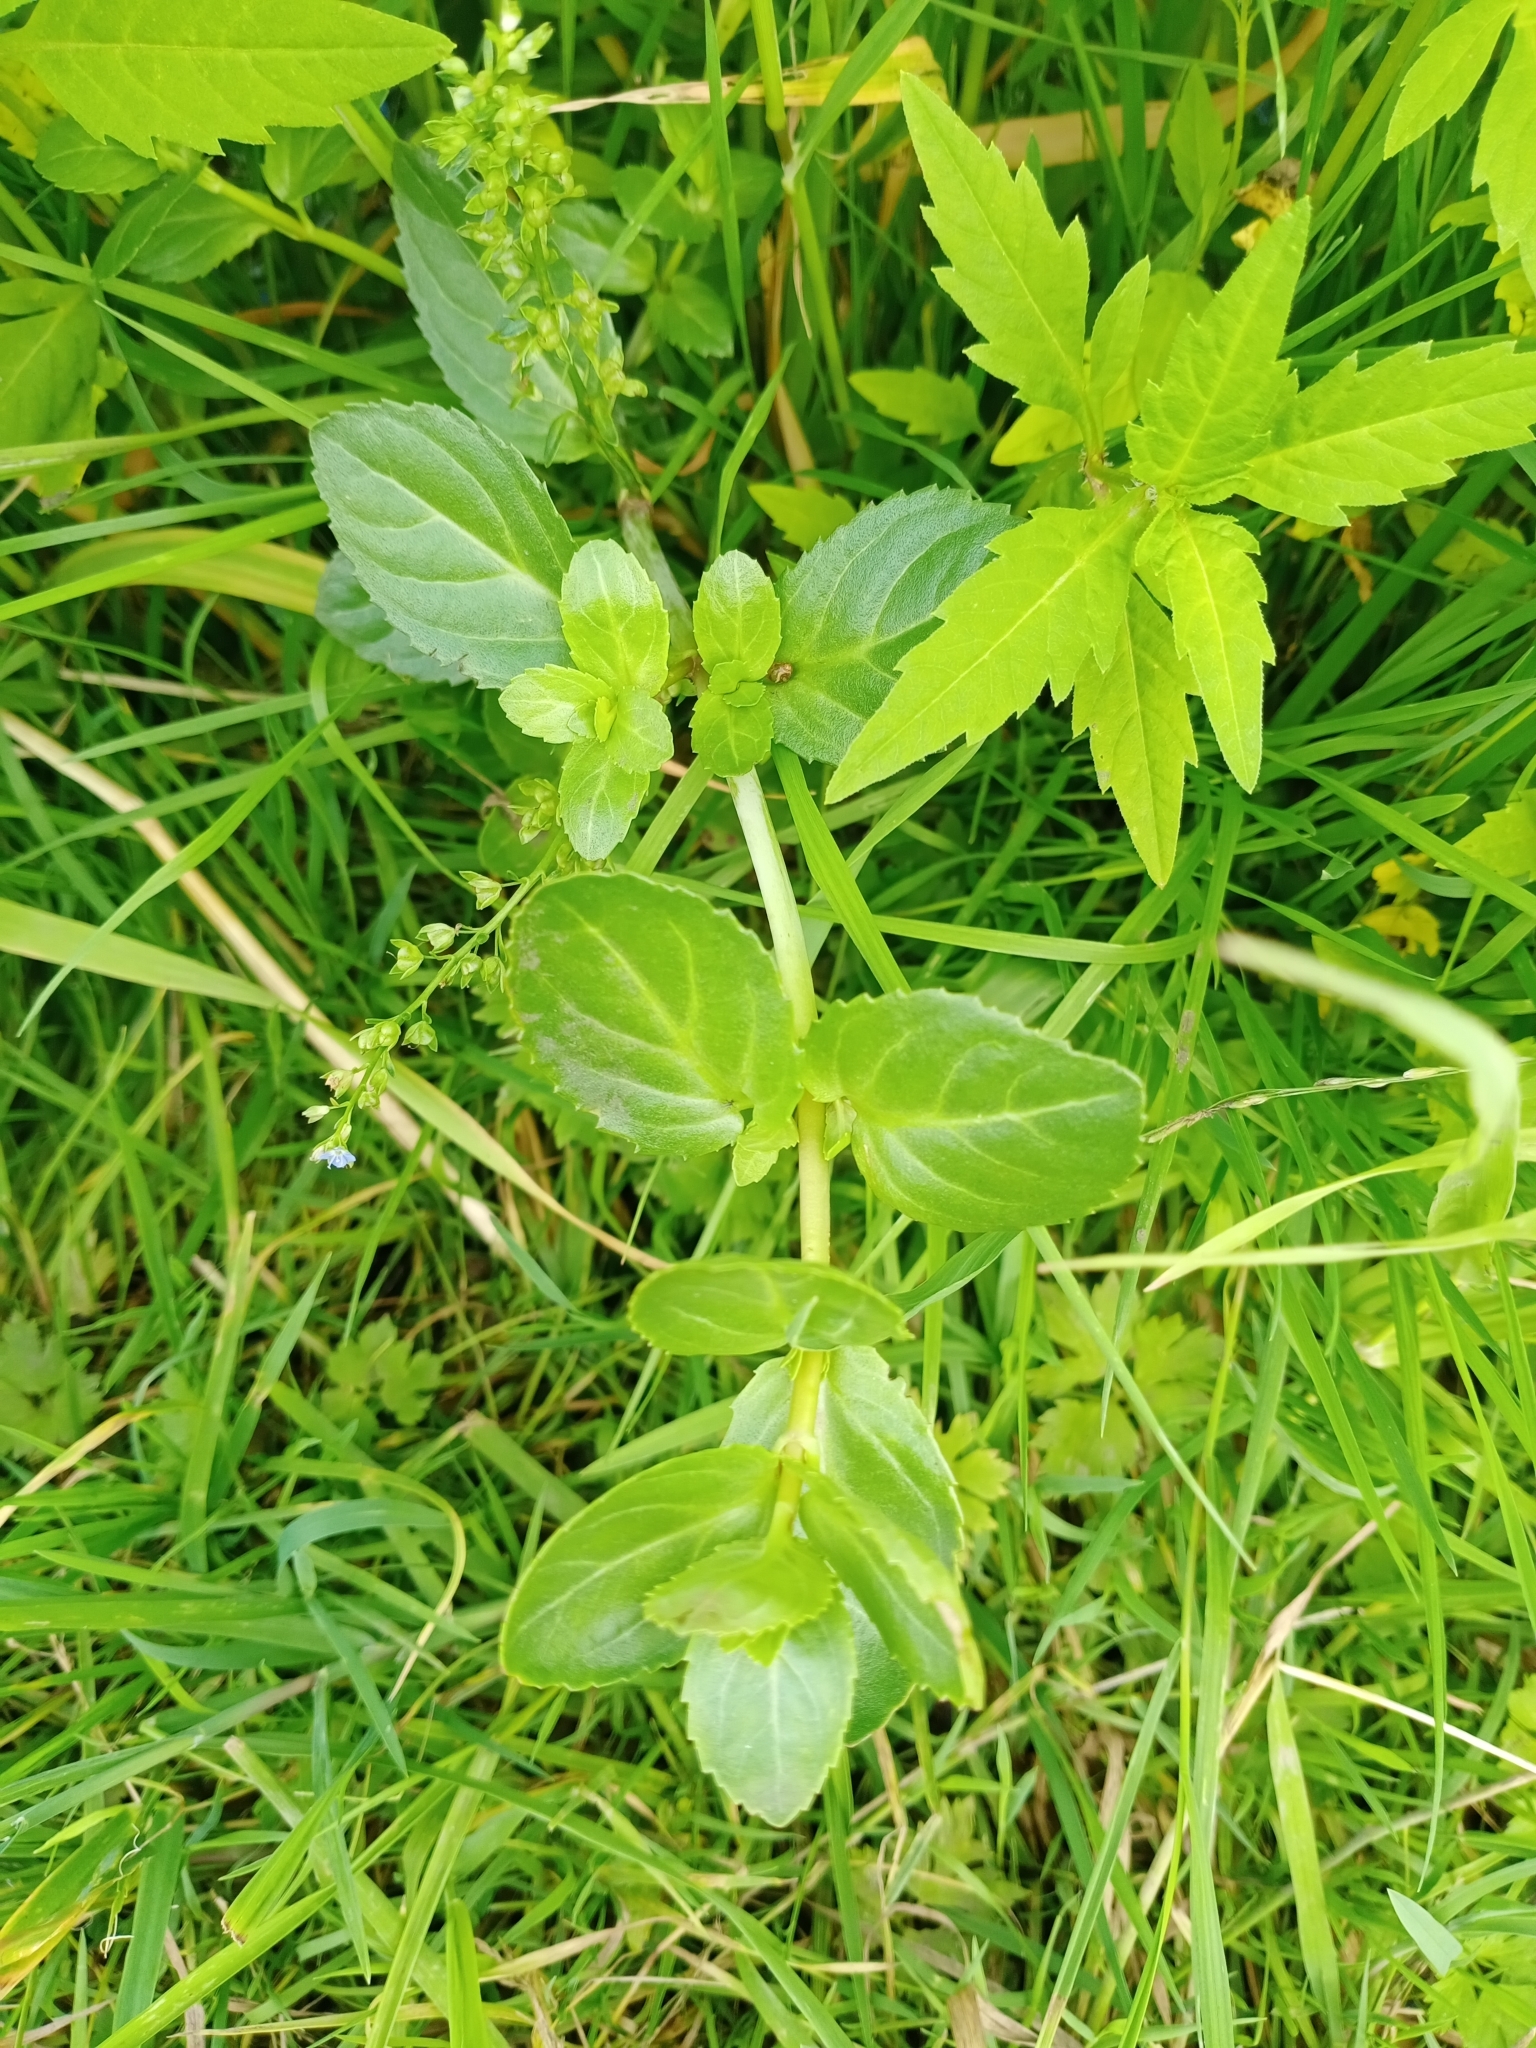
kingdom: Plantae
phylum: Tracheophyta
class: Magnoliopsida
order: Lamiales
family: Plantaginaceae
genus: Veronica
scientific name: Veronica beccabunga
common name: Brooklime
